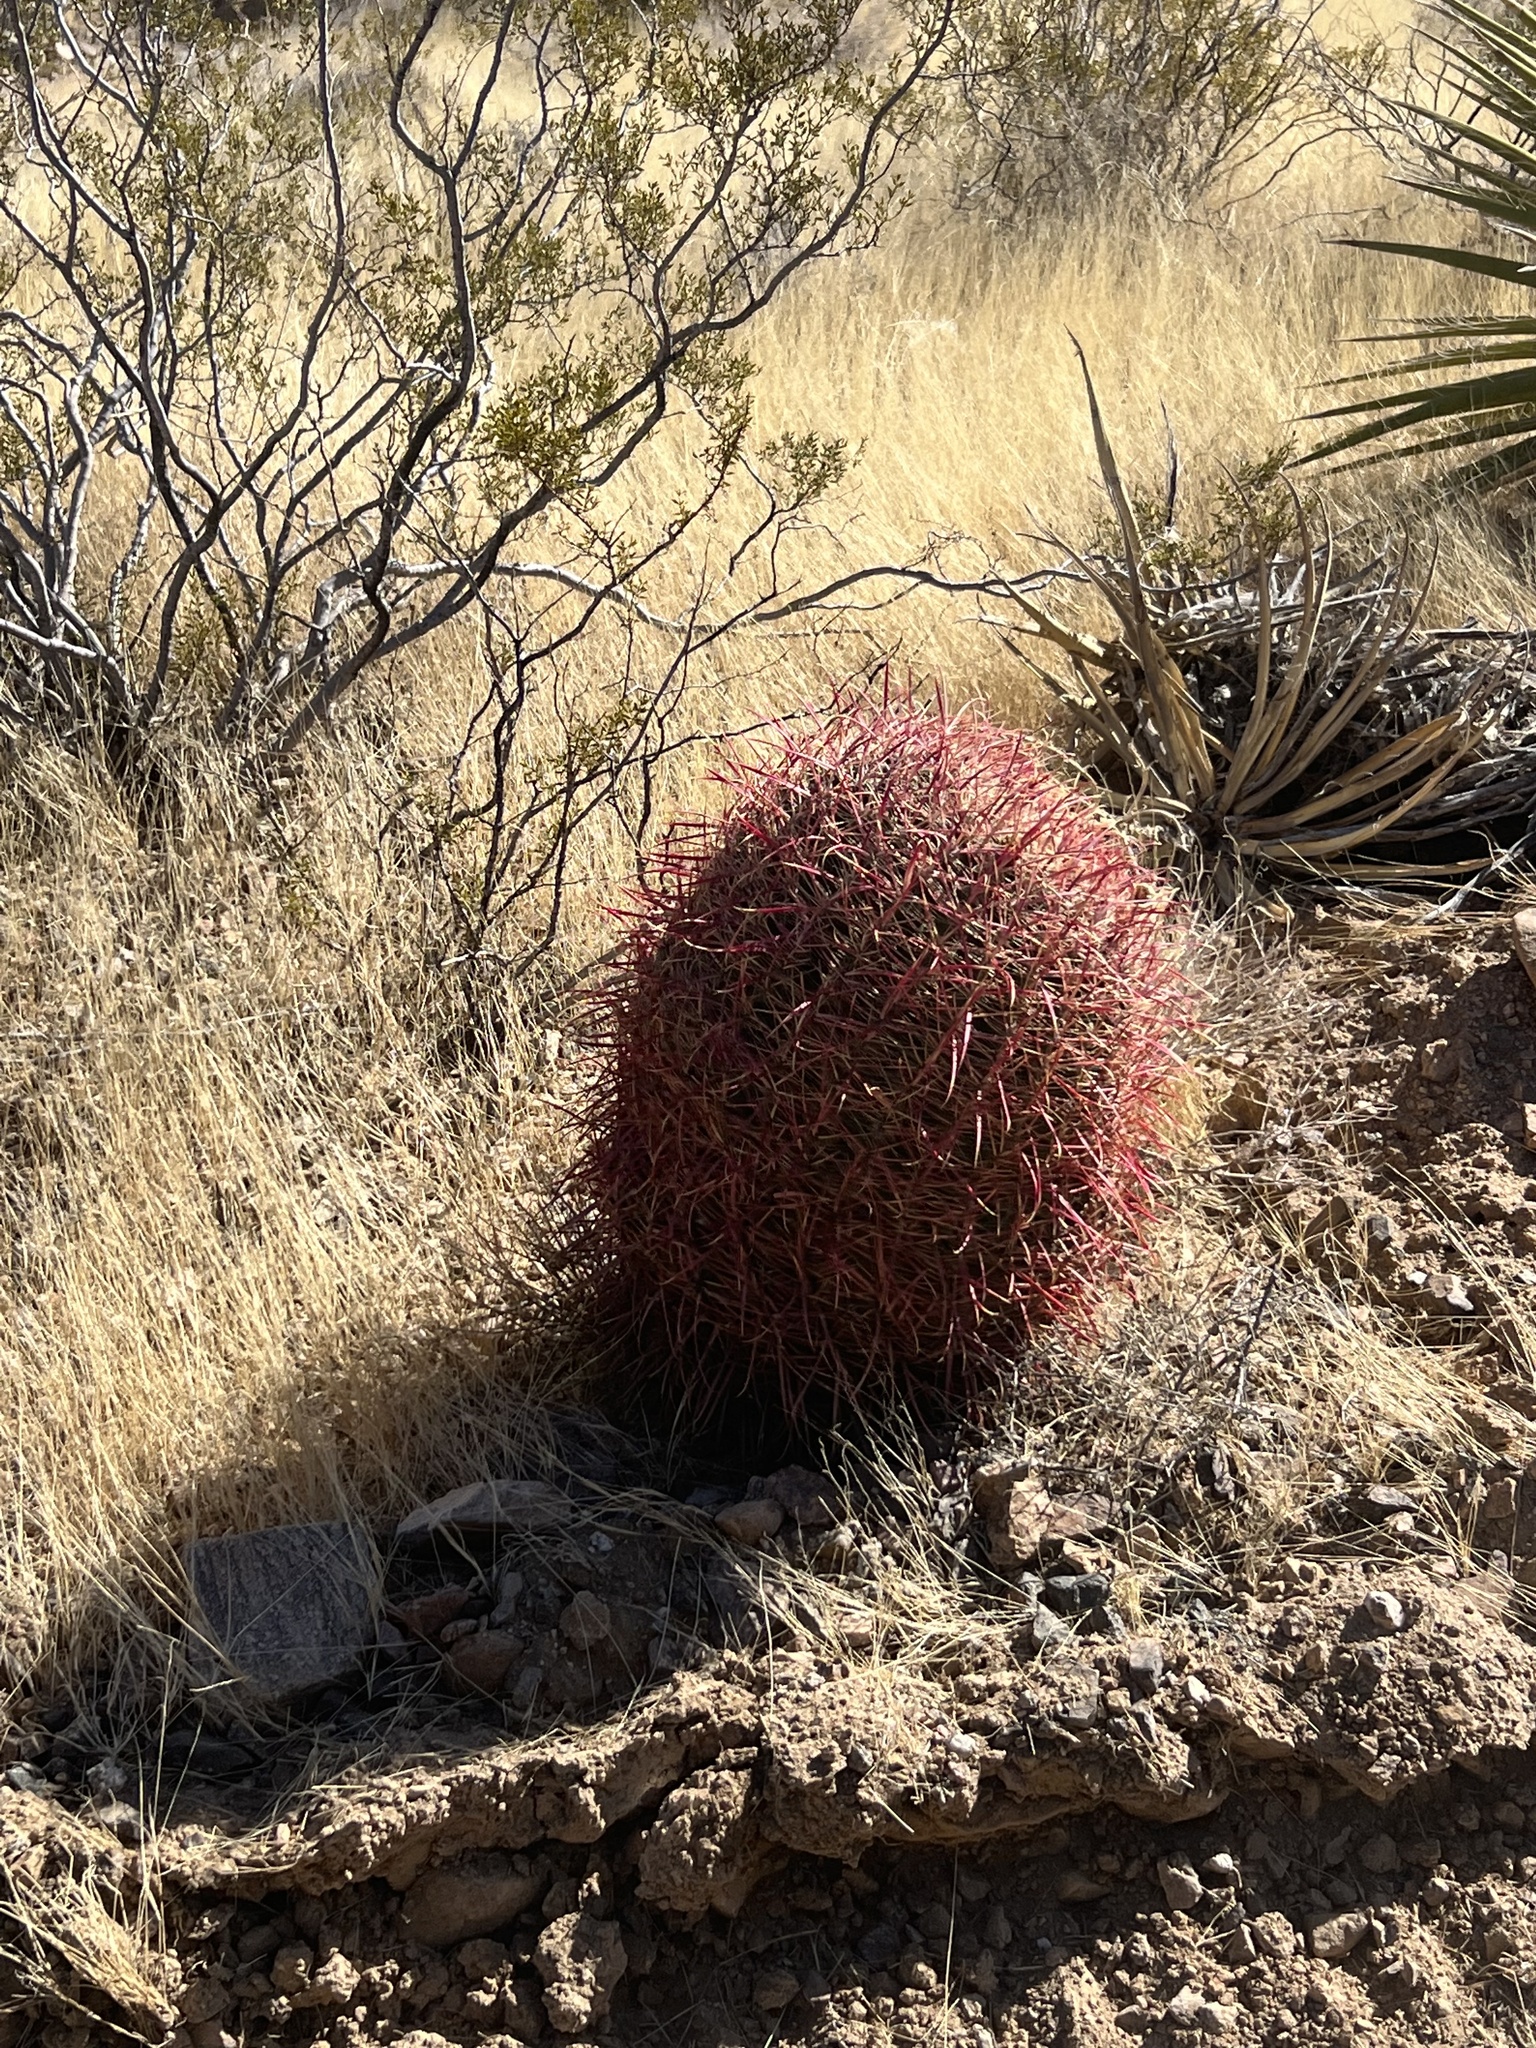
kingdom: Plantae
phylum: Tracheophyta
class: Magnoliopsida
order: Caryophyllales
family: Cactaceae
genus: Ferocactus
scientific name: Ferocactus cylindraceus
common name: California barrel cactus
